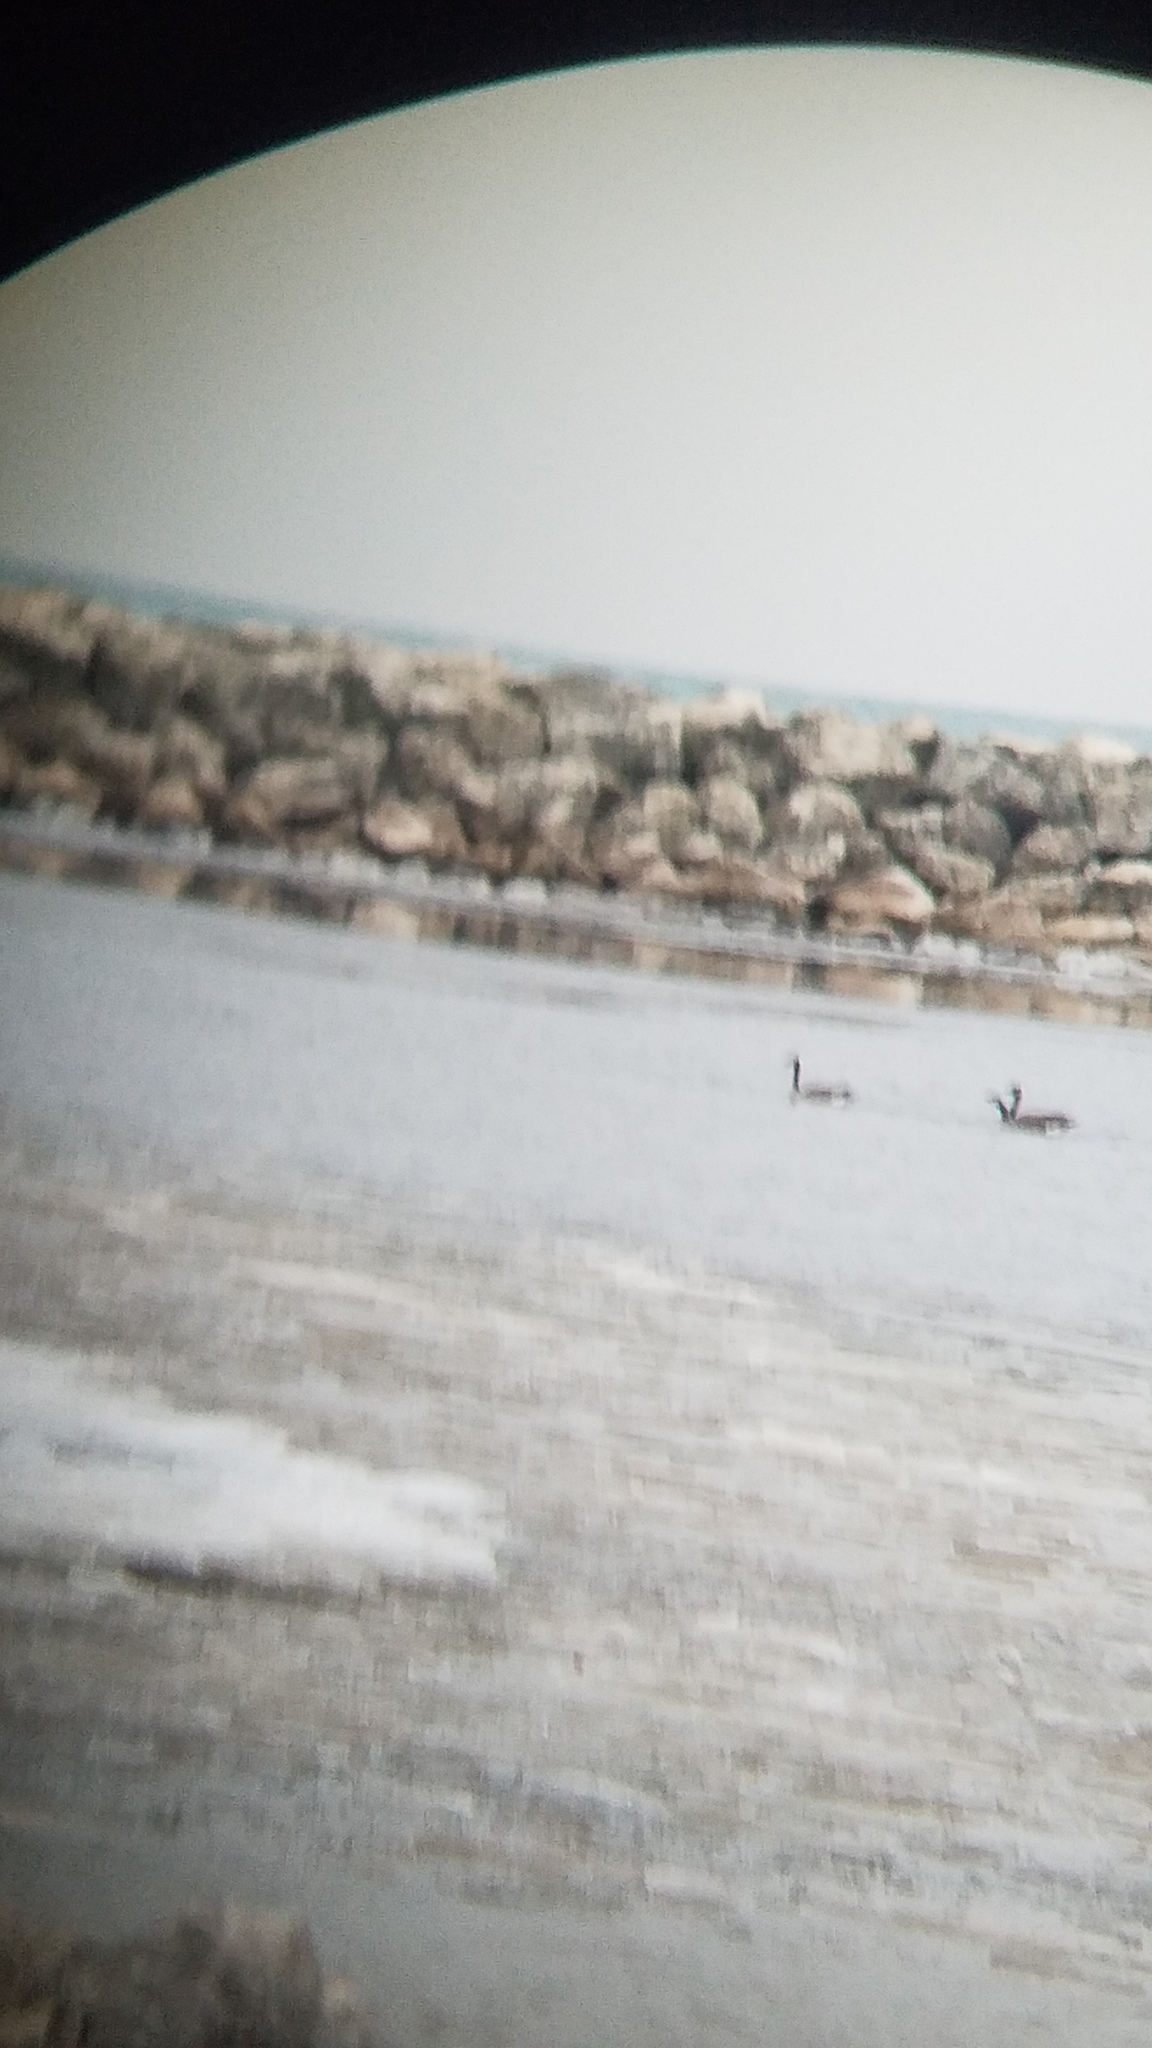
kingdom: Animalia
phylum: Chordata
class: Aves
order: Anseriformes
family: Anatidae
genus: Branta
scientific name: Branta canadensis
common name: Canada goose
